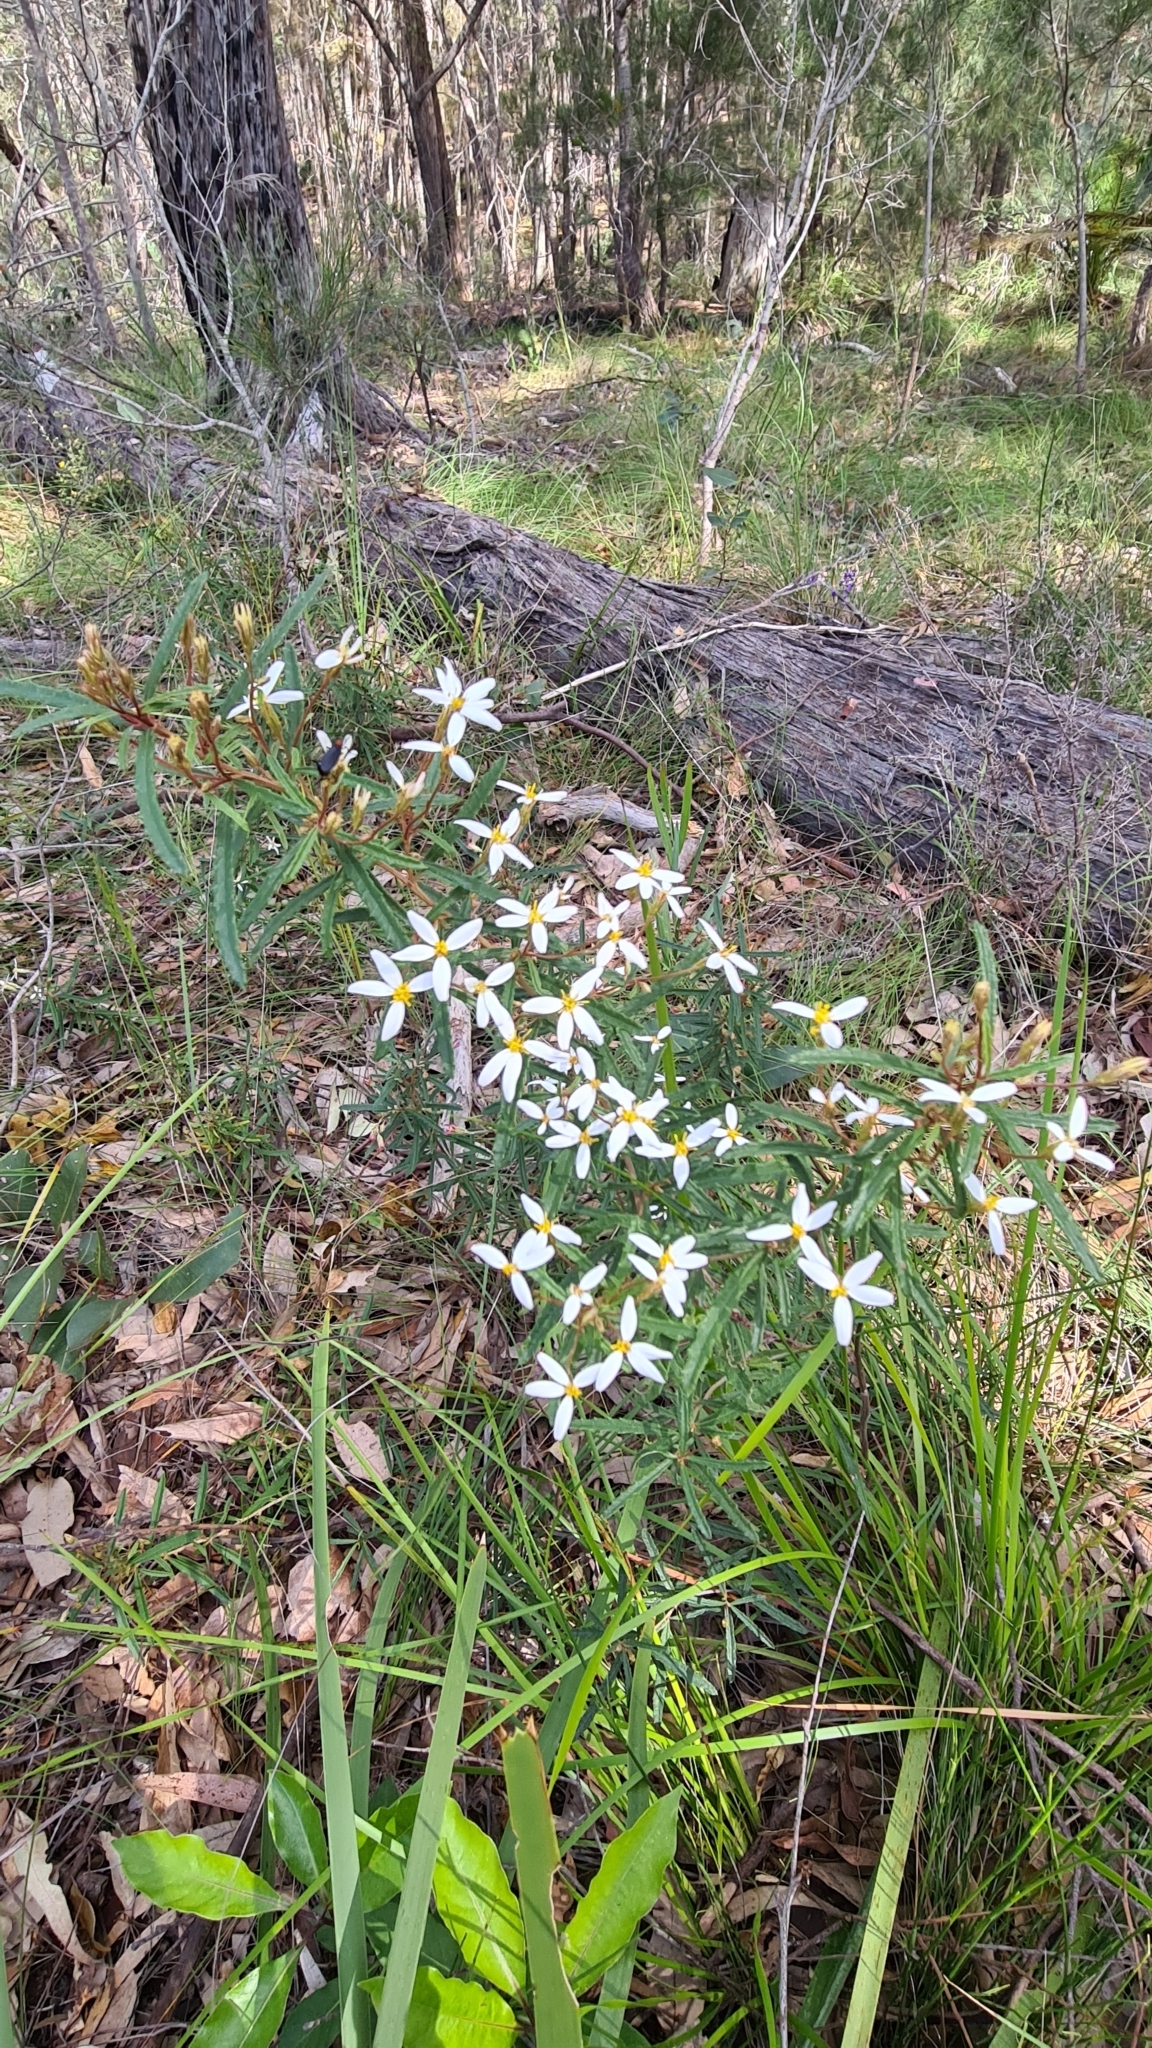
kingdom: Plantae
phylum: Tracheophyta
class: Magnoliopsida
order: Asterales
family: Asteraceae
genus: Olearia
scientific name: Olearia erubescens
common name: Moth daisybush
